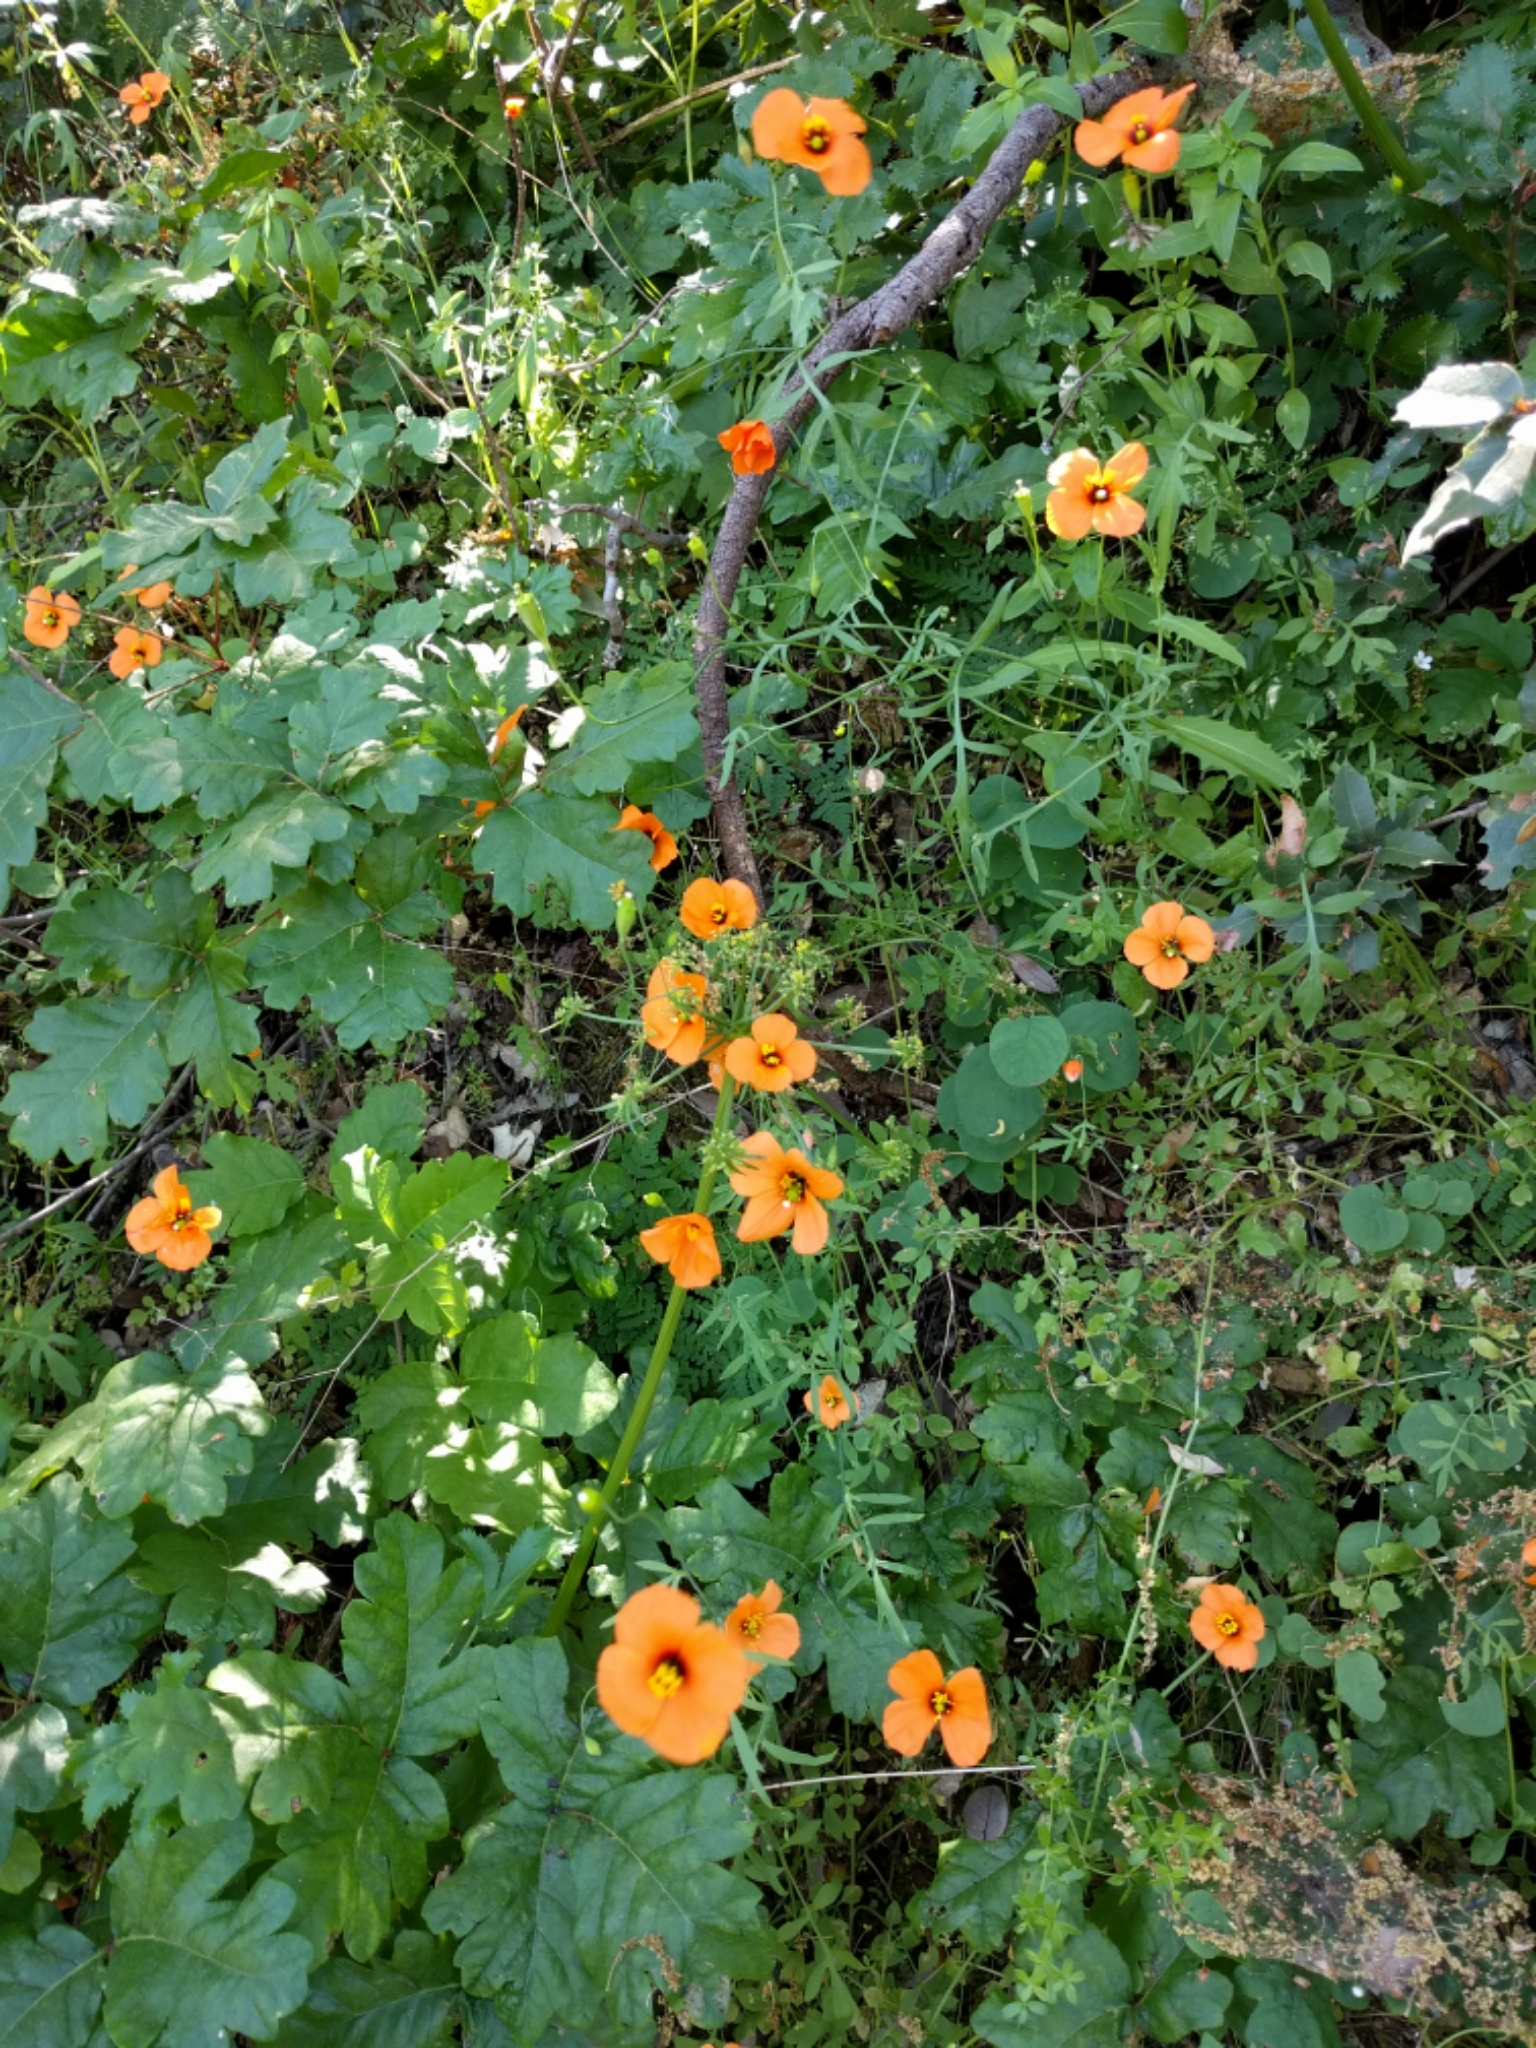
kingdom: Plantae
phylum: Tracheophyta
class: Magnoliopsida
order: Ranunculales
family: Papaveraceae
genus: Stylomecon
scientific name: Stylomecon heterophylla
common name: Flaming-poppy
